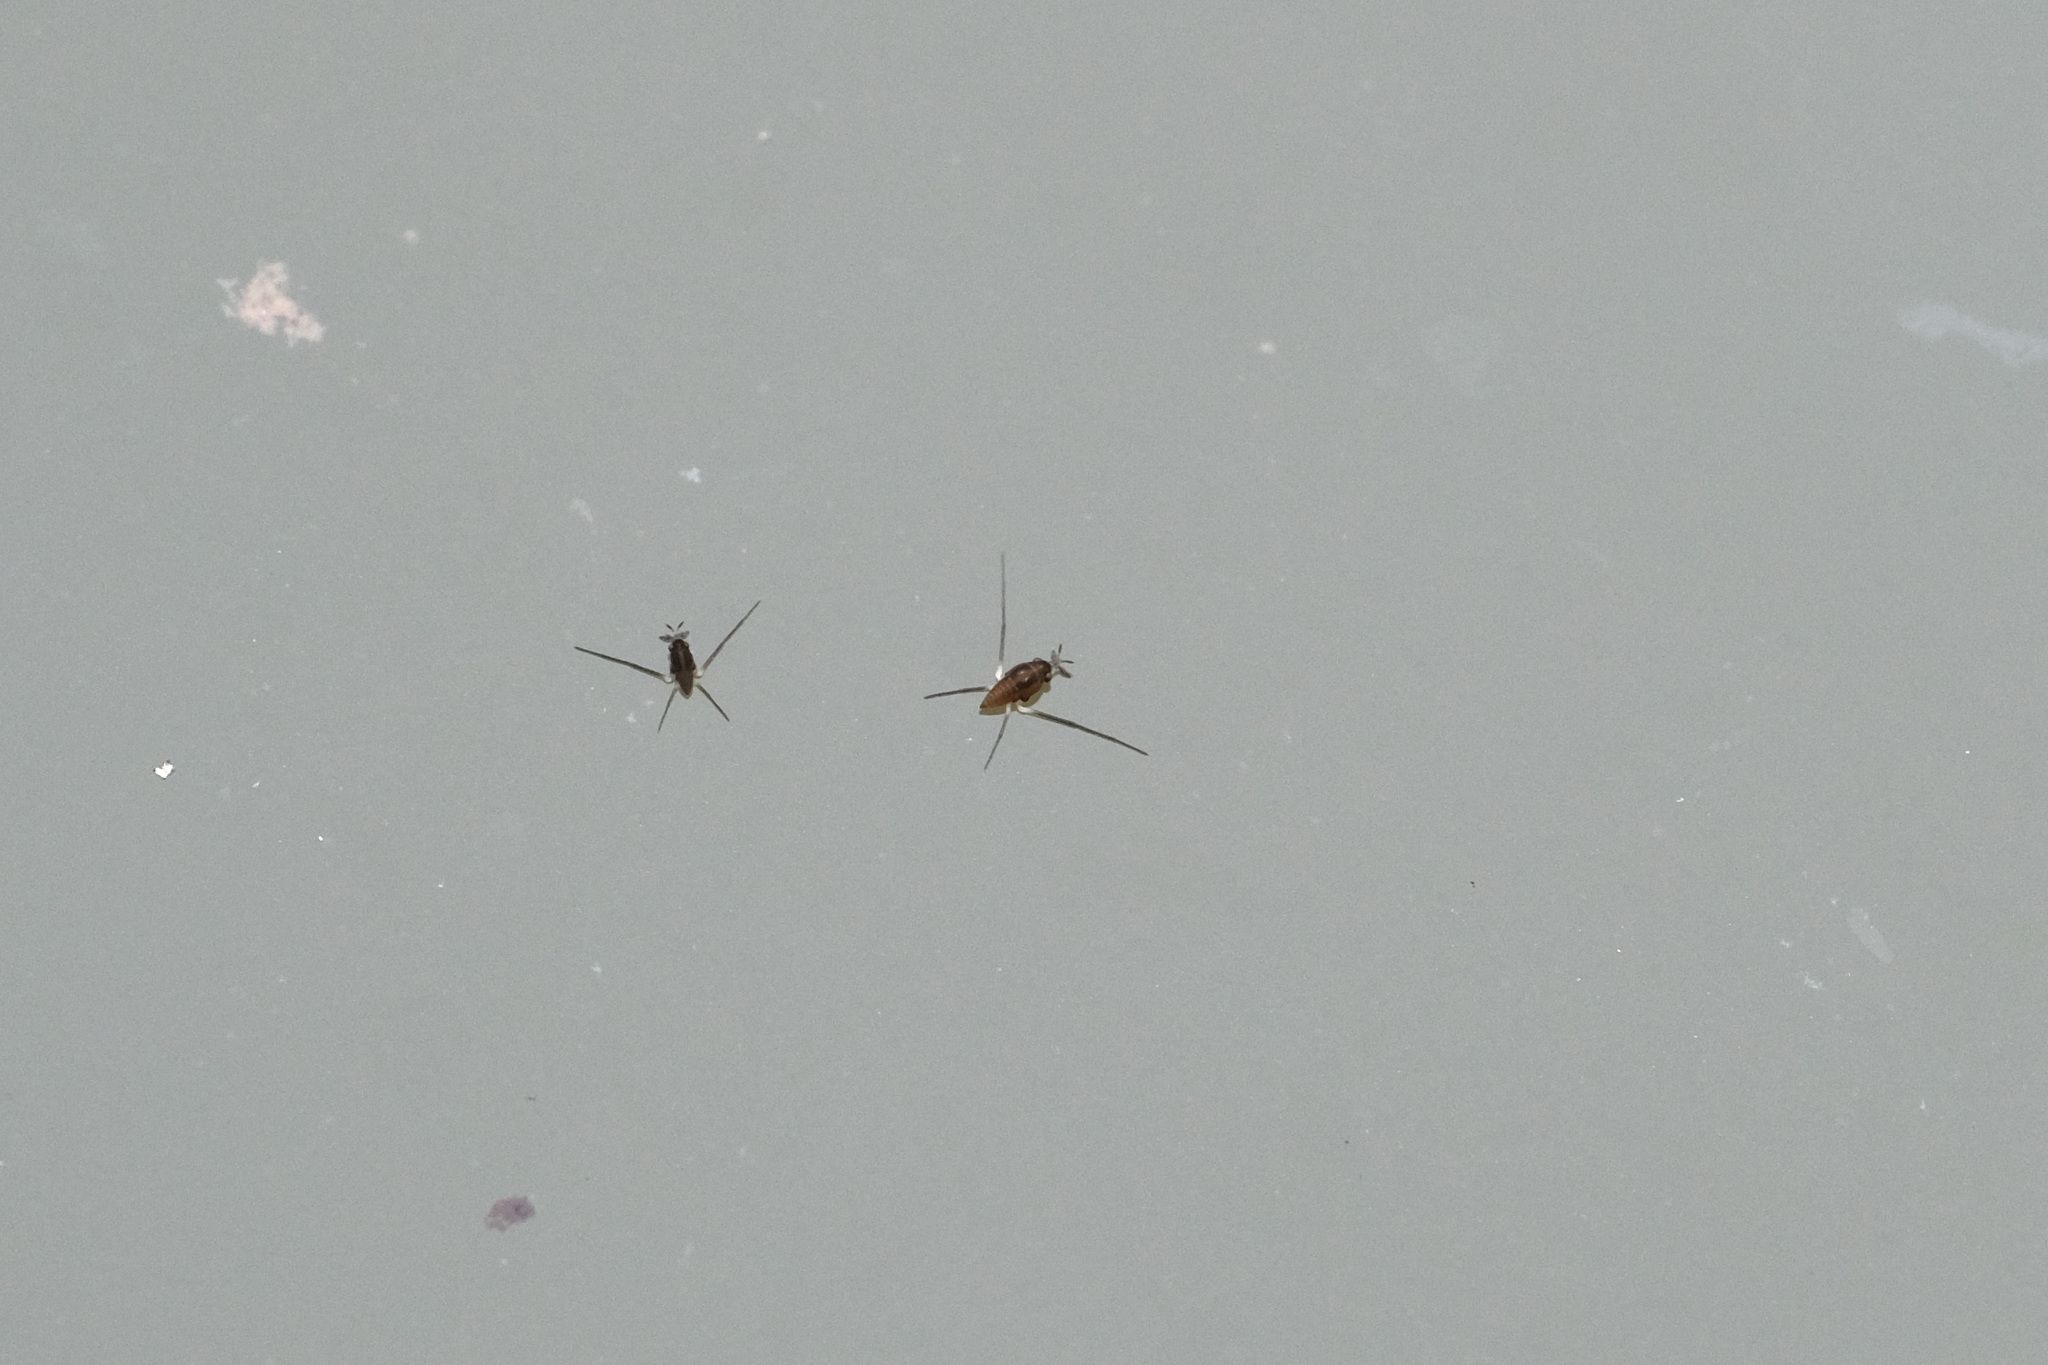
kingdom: Animalia
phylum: Arthropoda
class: Insecta
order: Hemiptera
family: Gerridae
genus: Rhagadotarsus
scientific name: Rhagadotarsus kraepelini
